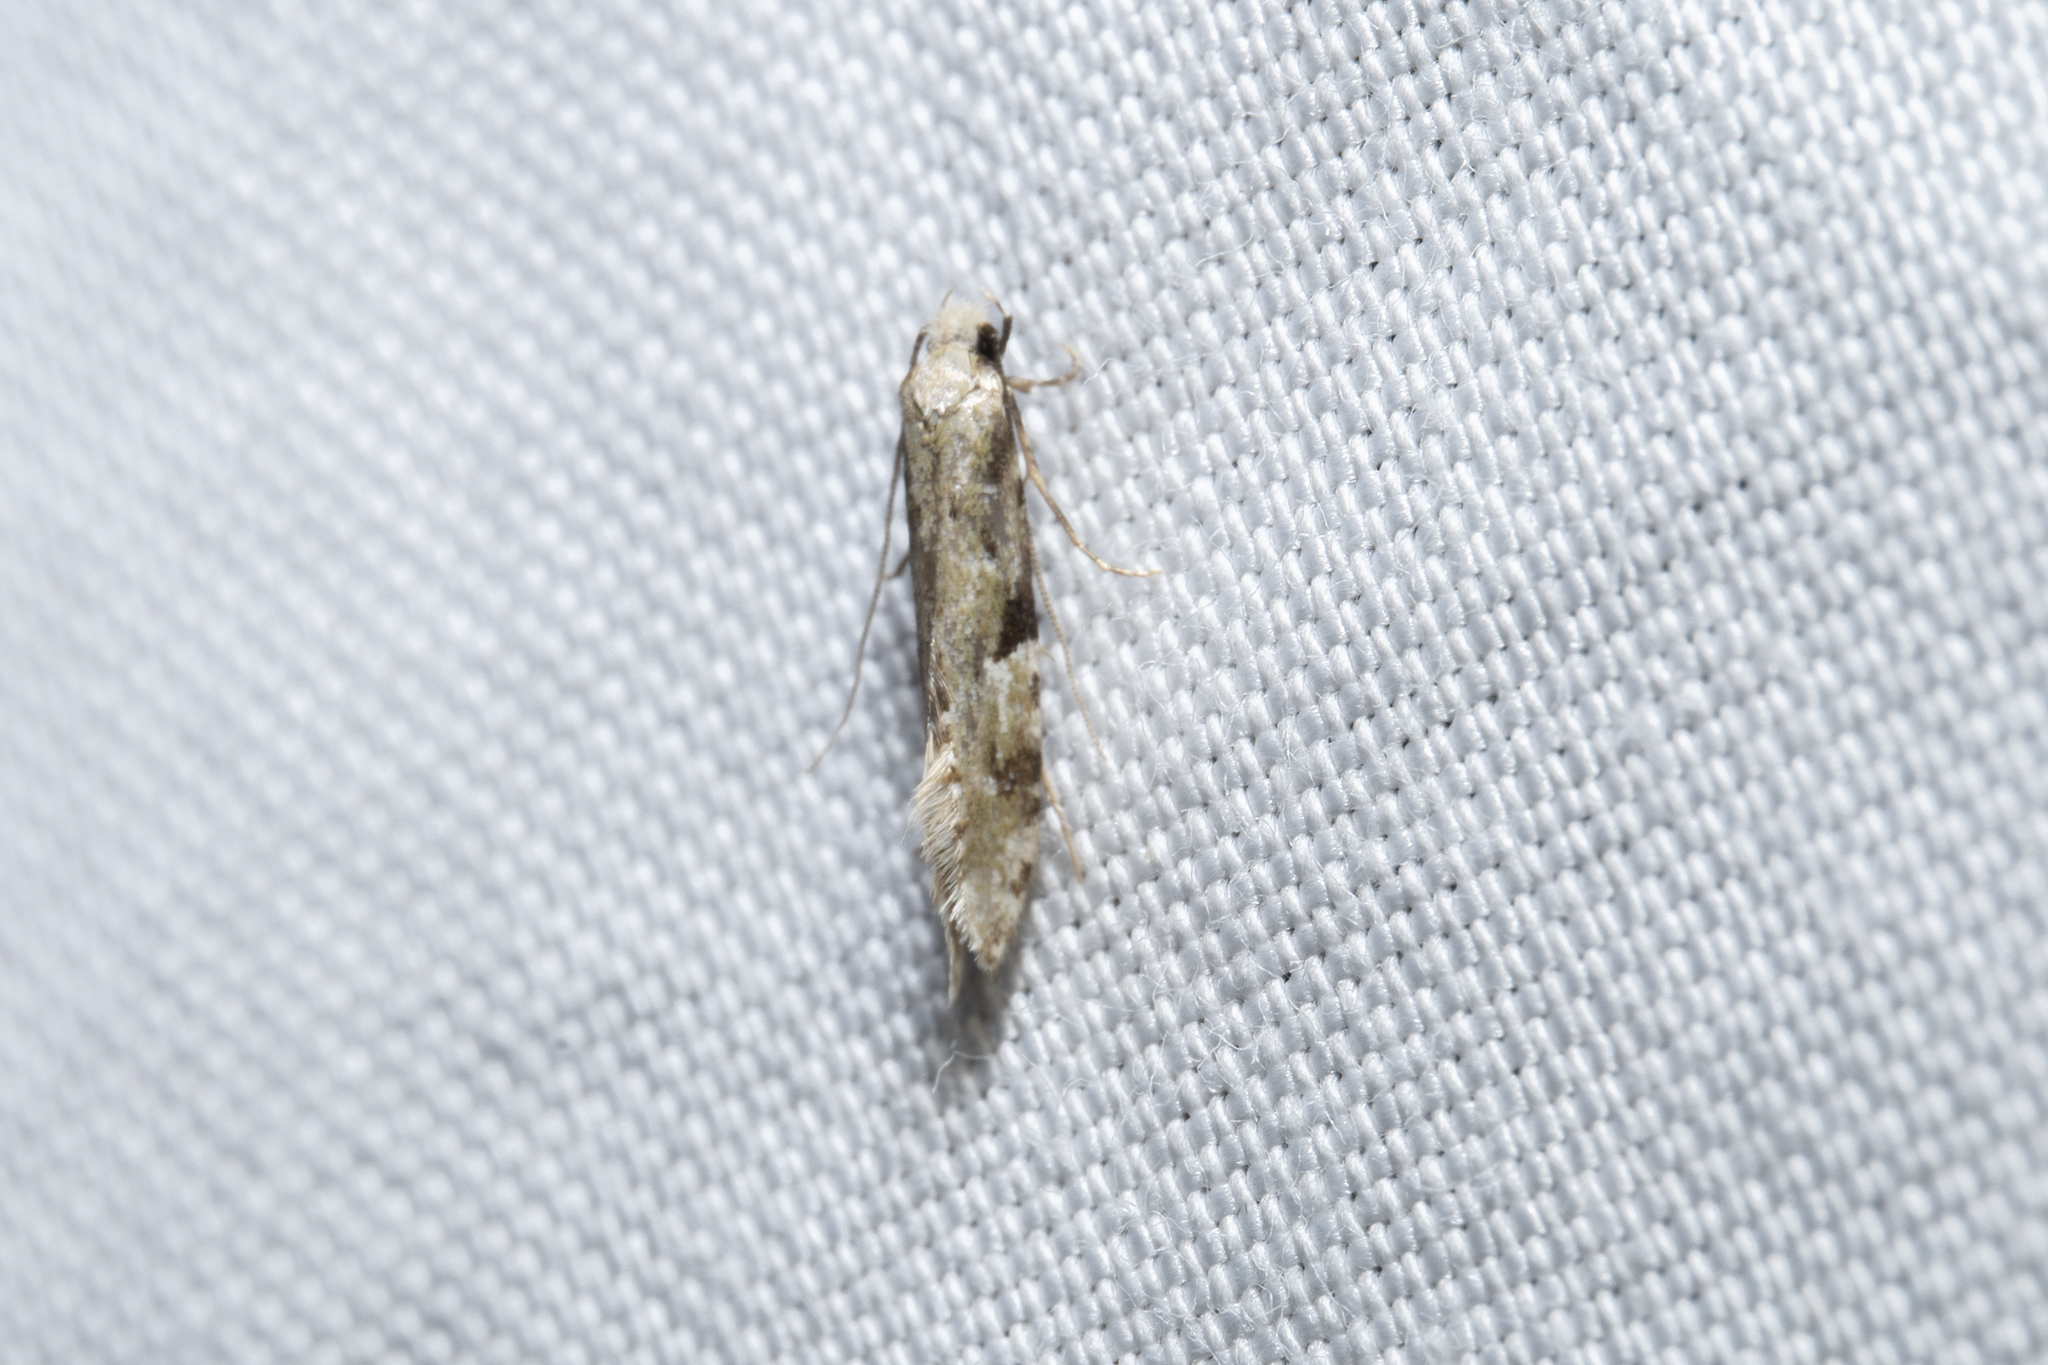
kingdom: Animalia
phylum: Arthropoda
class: Insecta
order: Lepidoptera
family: Tineidae
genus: Crypsitricha
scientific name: Crypsitricha mesotypa
